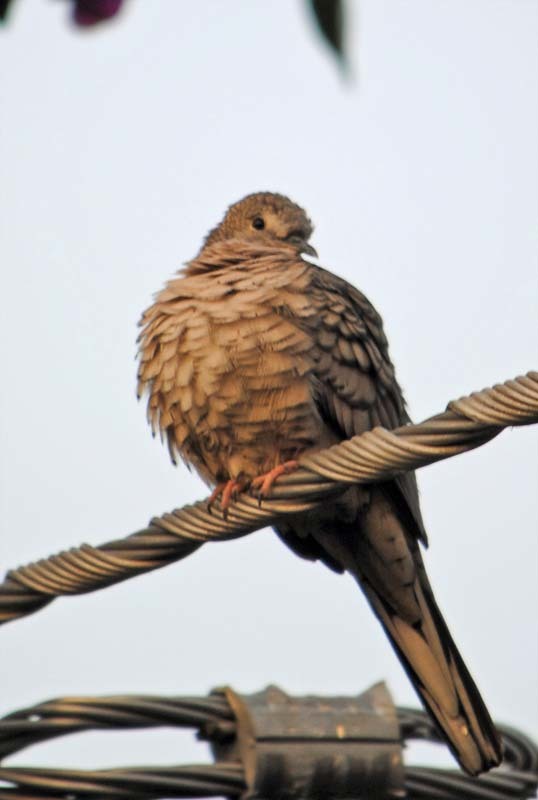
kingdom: Animalia
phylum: Chordata
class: Aves
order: Columbiformes
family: Columbidae
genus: Columbina
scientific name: Columbina inca
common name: Inca dove
